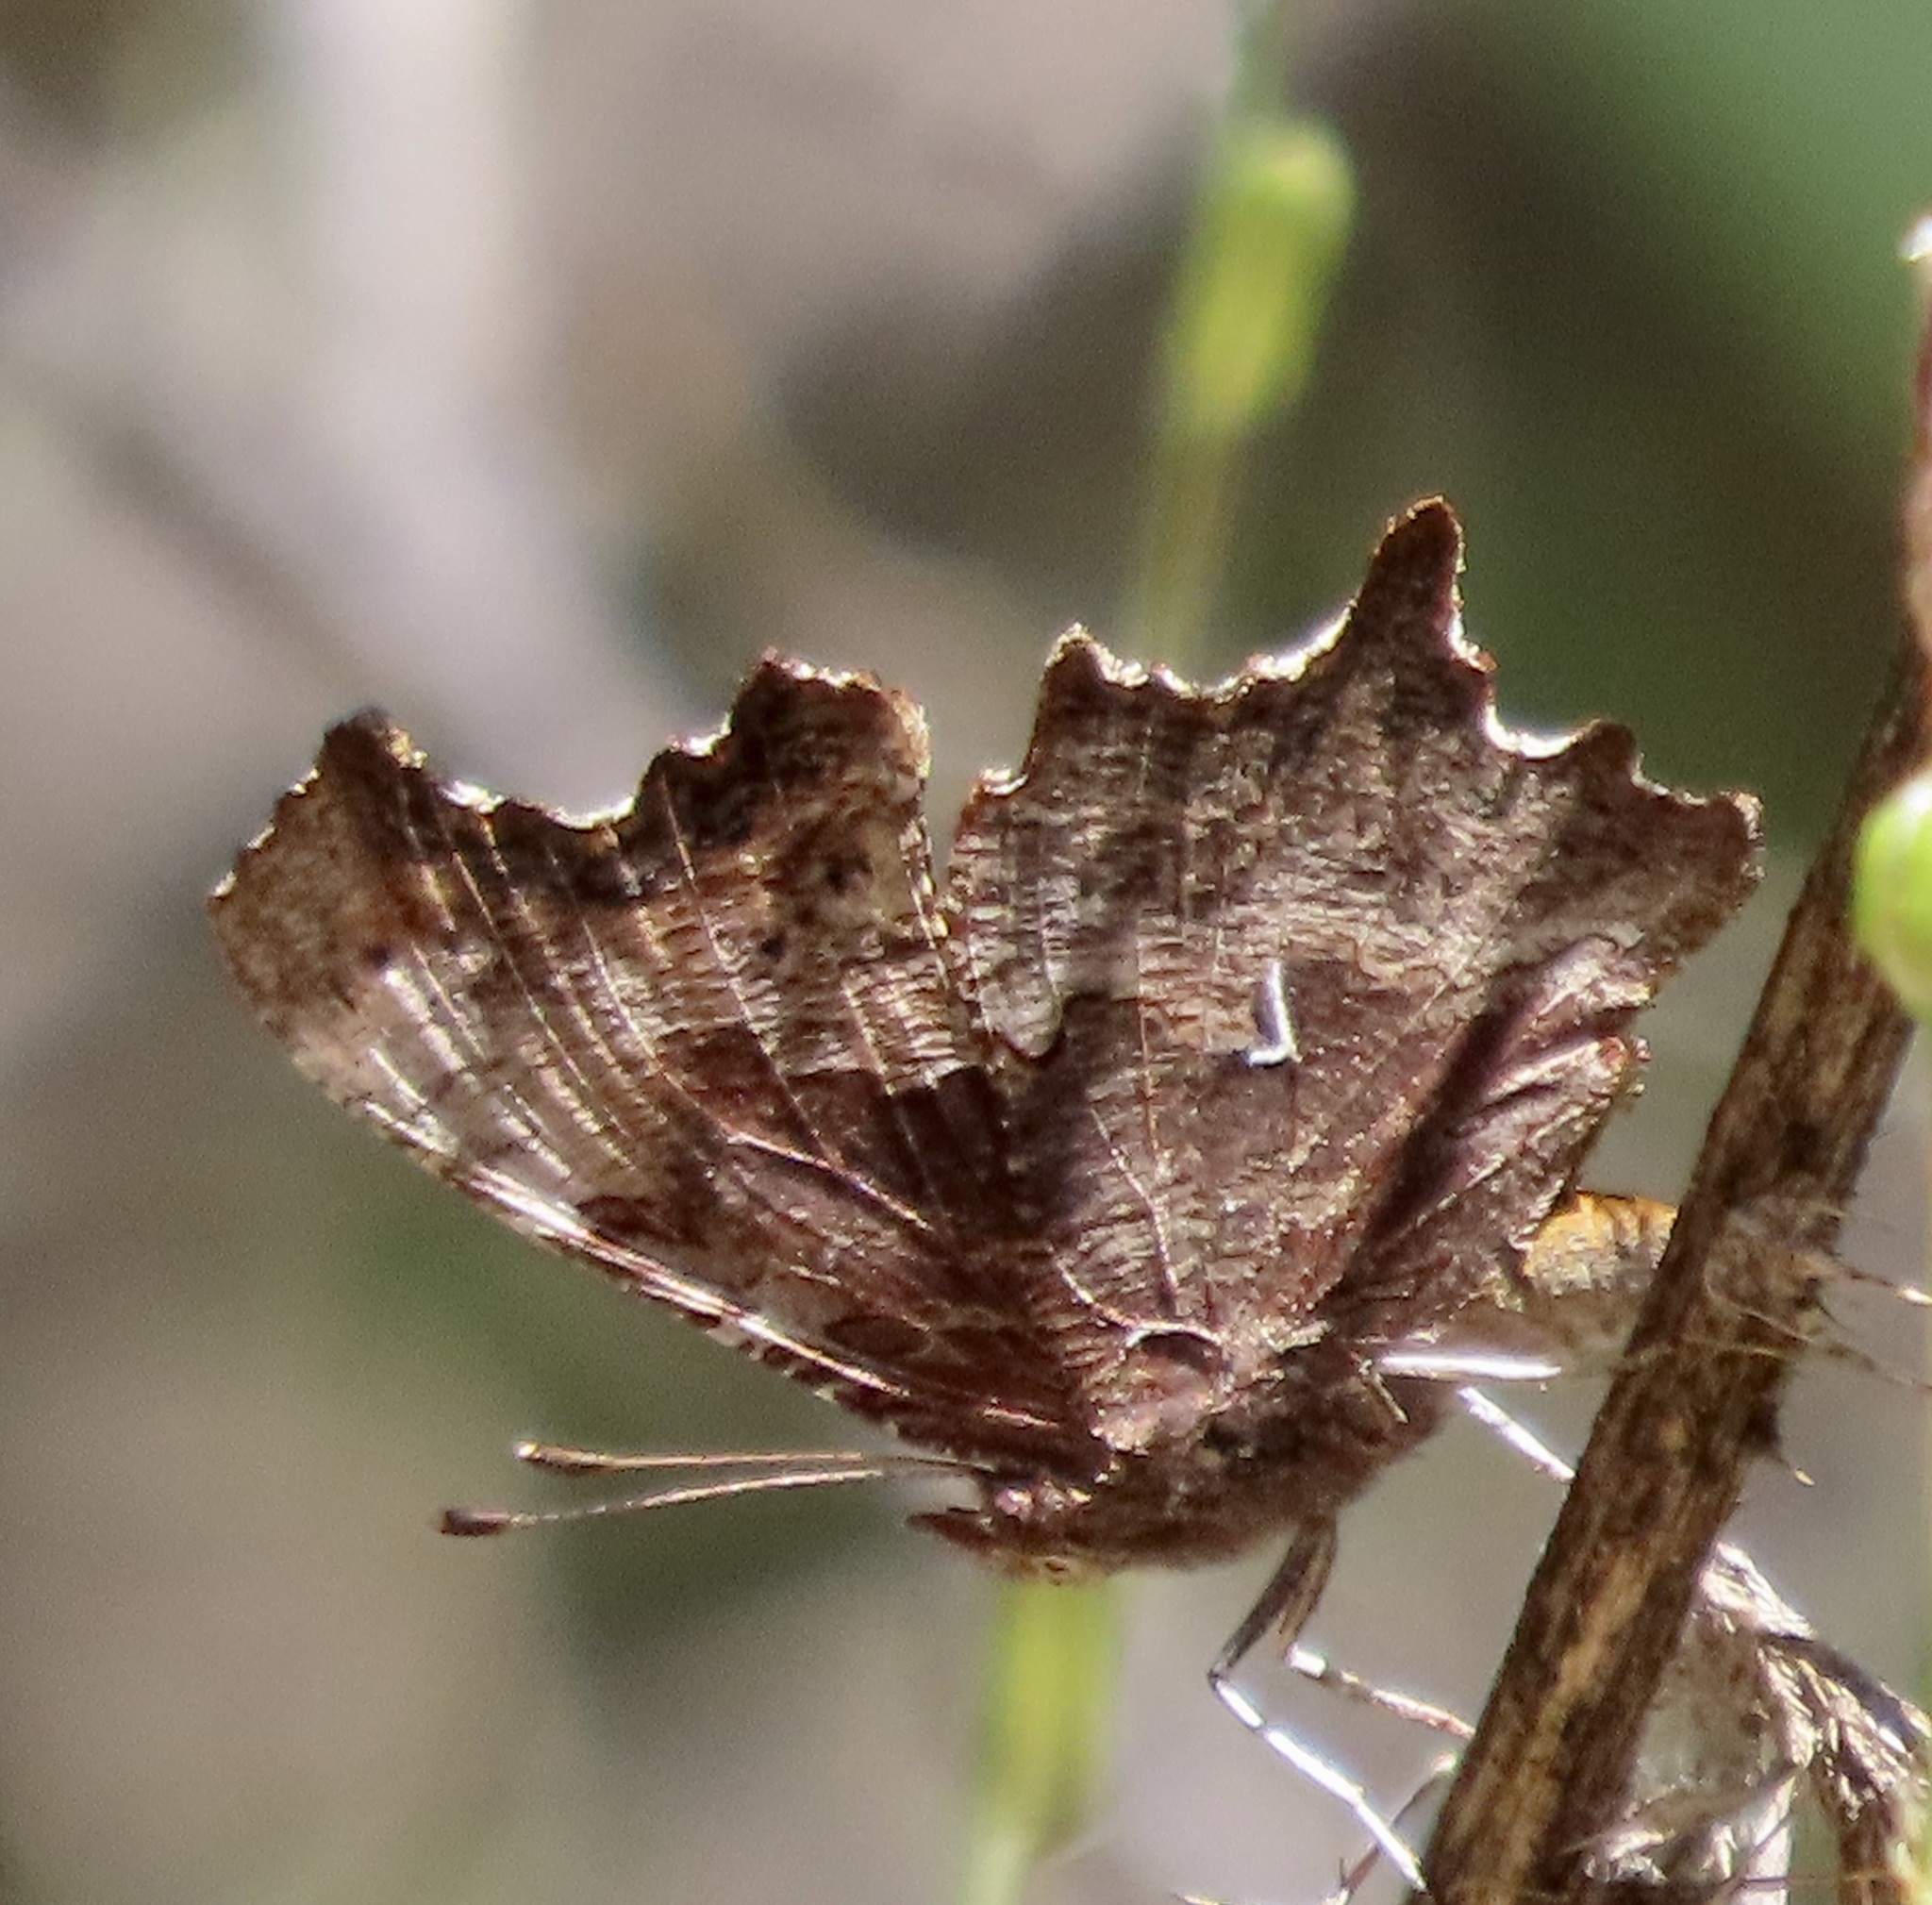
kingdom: Animalia
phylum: Arthropoda
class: Insecta
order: Lepidoptera
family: Nymphalidae
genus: Polygonia
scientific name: Polygonia oreas
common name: Oreas comma
